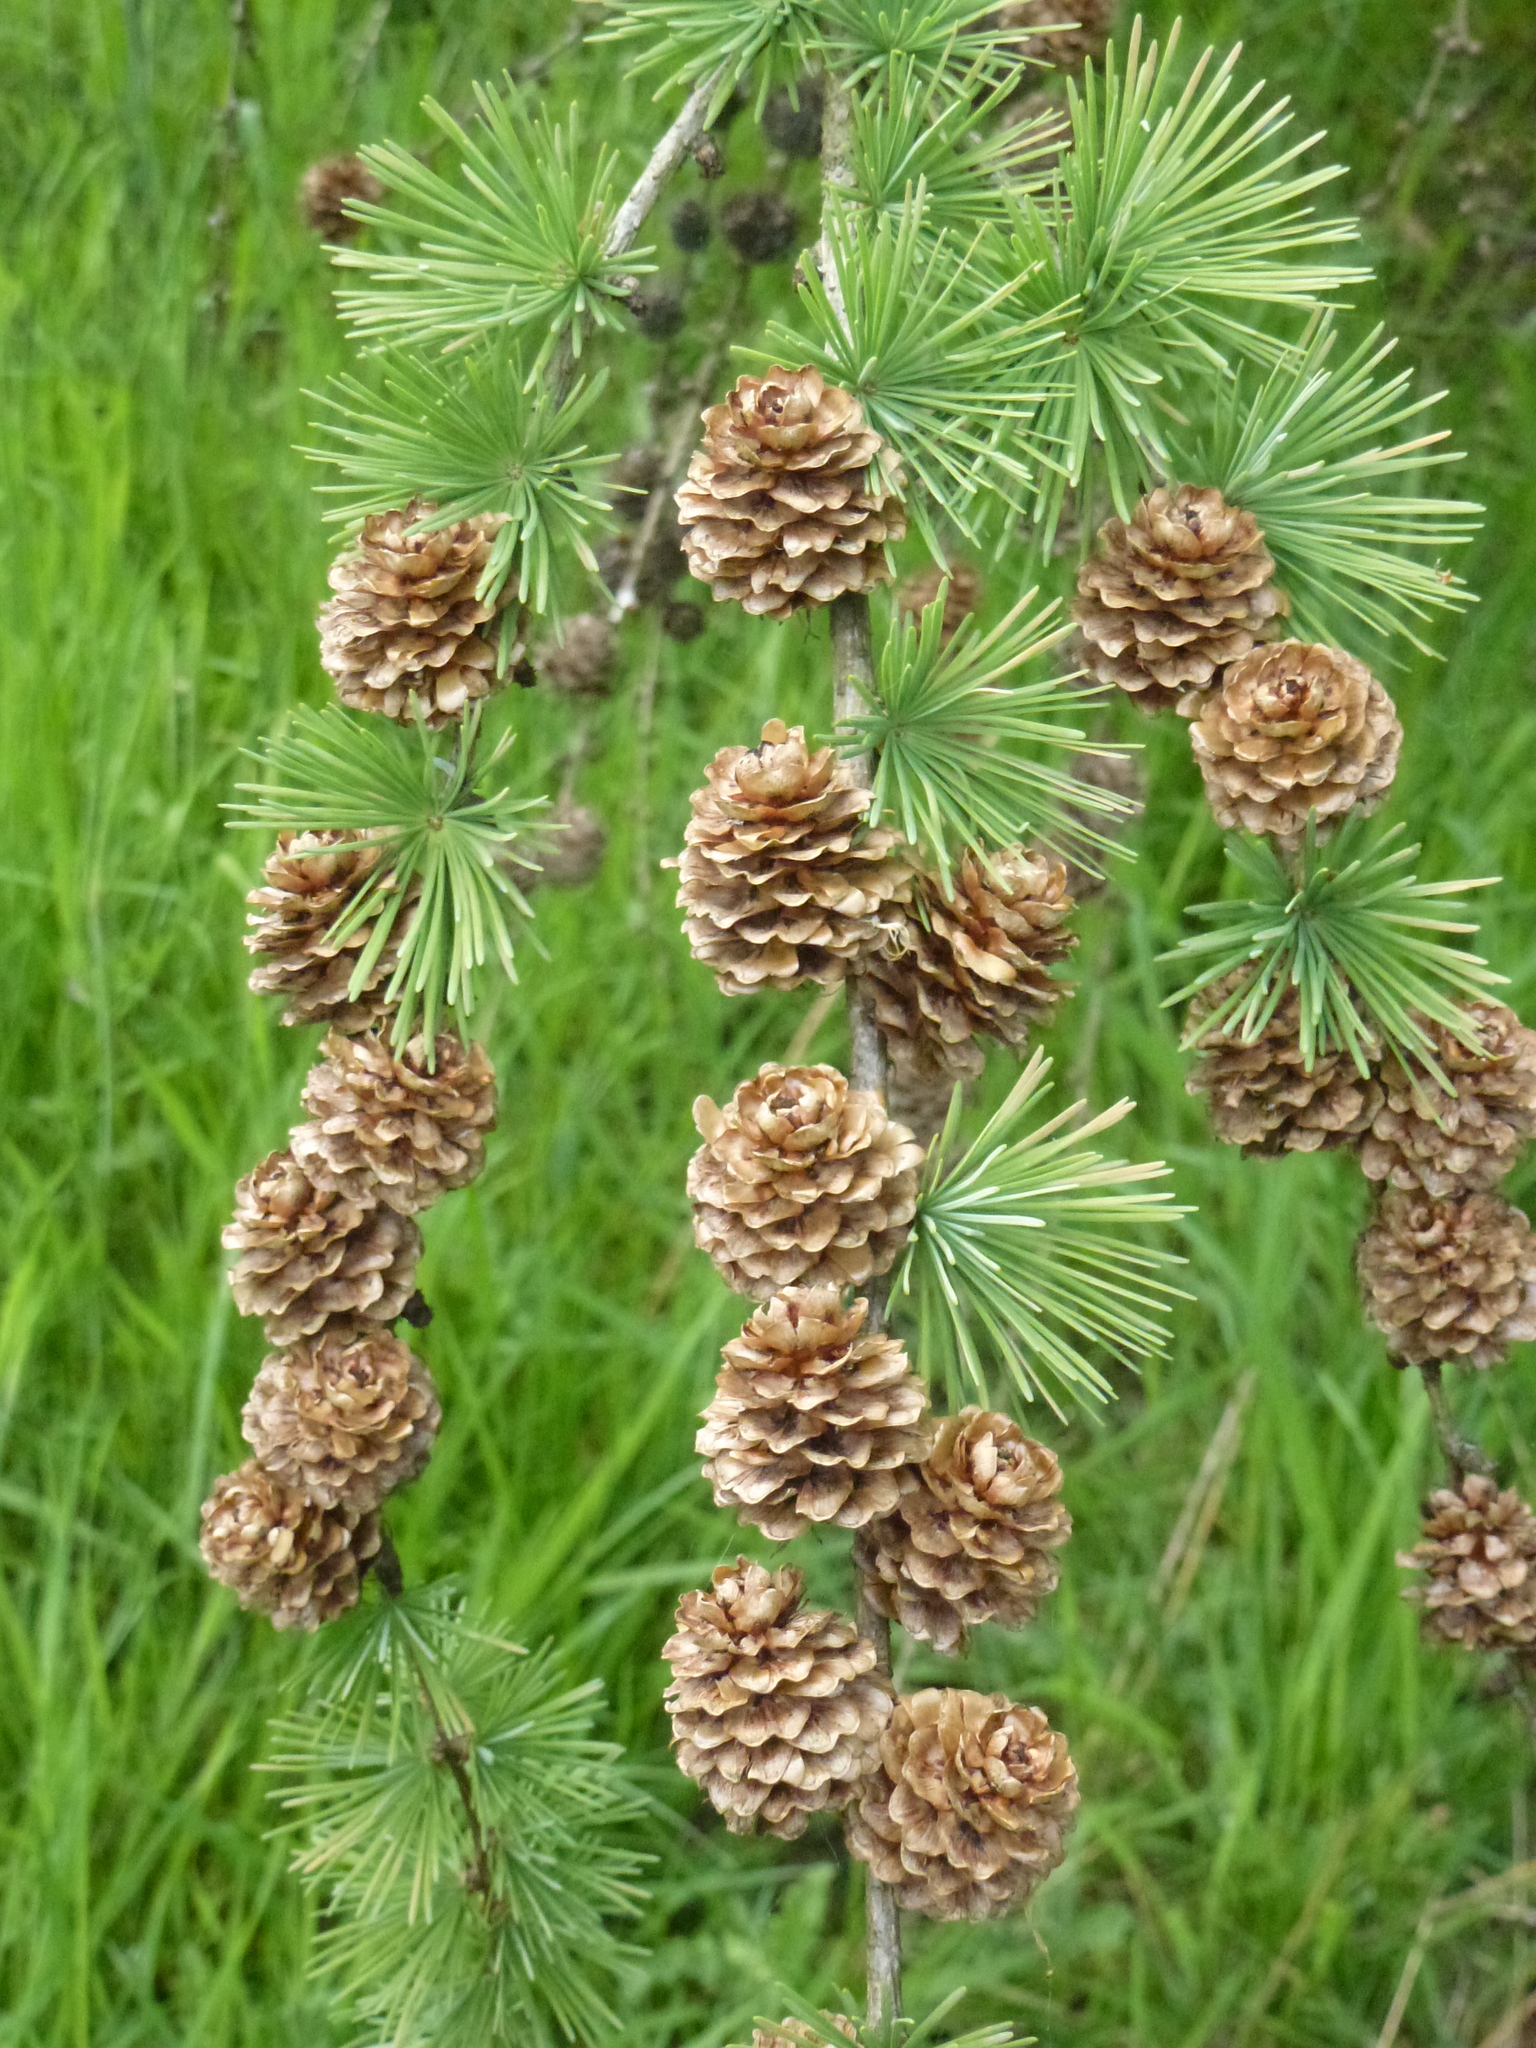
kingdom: Plantae
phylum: Tracheophyta
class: Pinopsida
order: Pinales
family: Pinaceae
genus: Larix
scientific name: Larix decidua
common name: European larch
